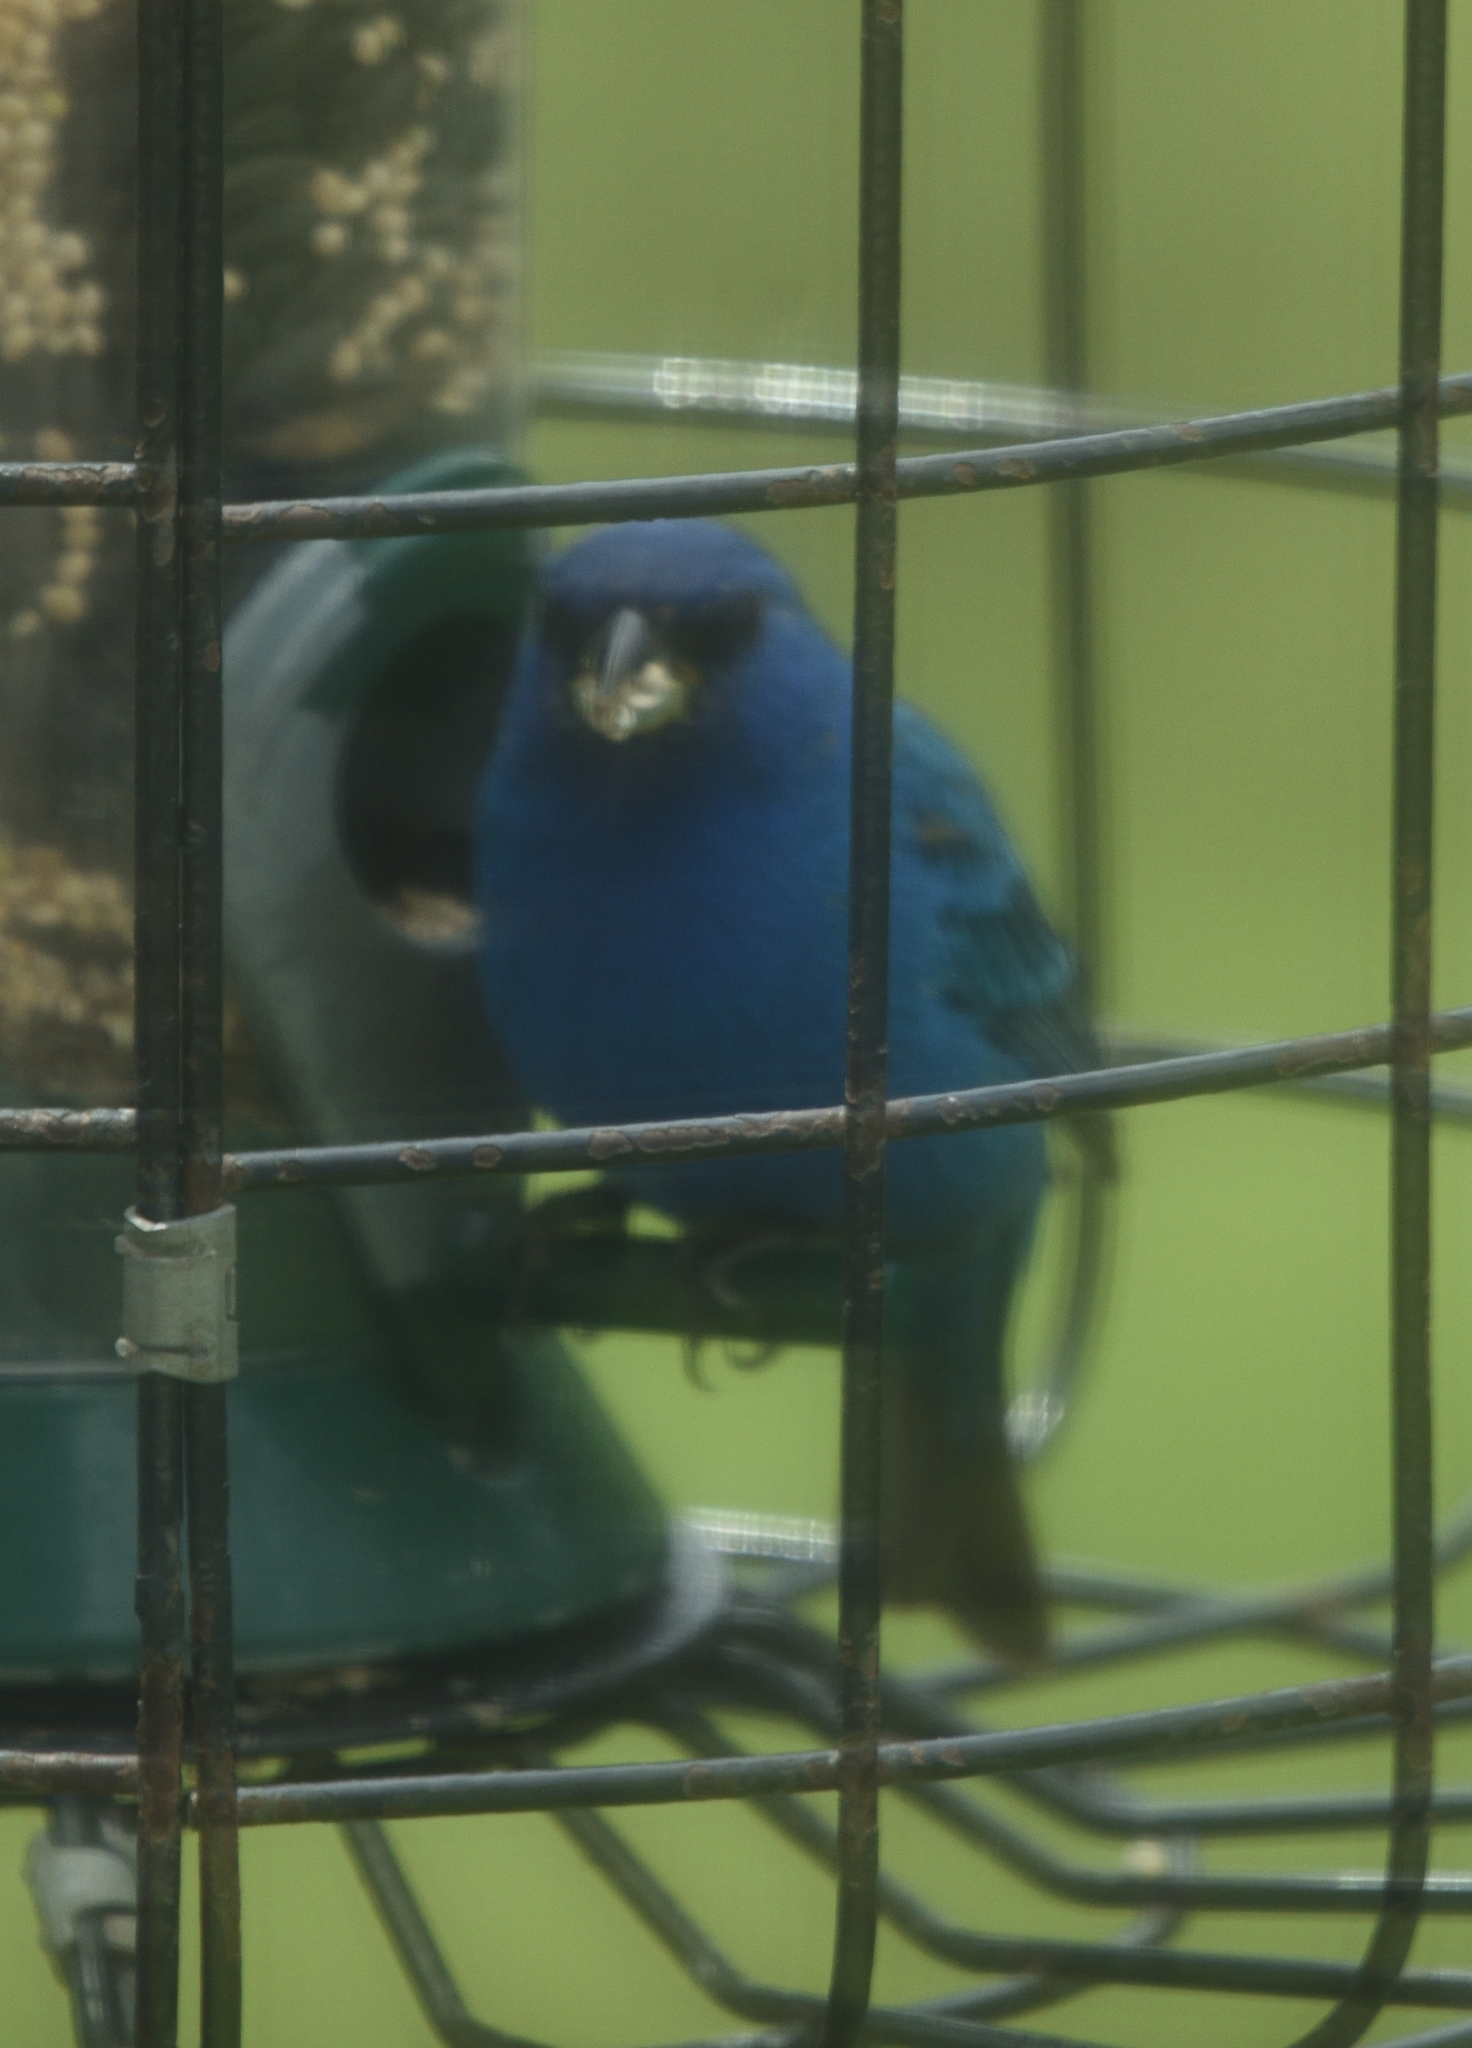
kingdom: Animalia
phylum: Chordata
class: Aves
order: Passeriformes
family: Cardinalidae
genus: Passerina
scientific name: Passerina cyanea
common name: Indigo bunting
